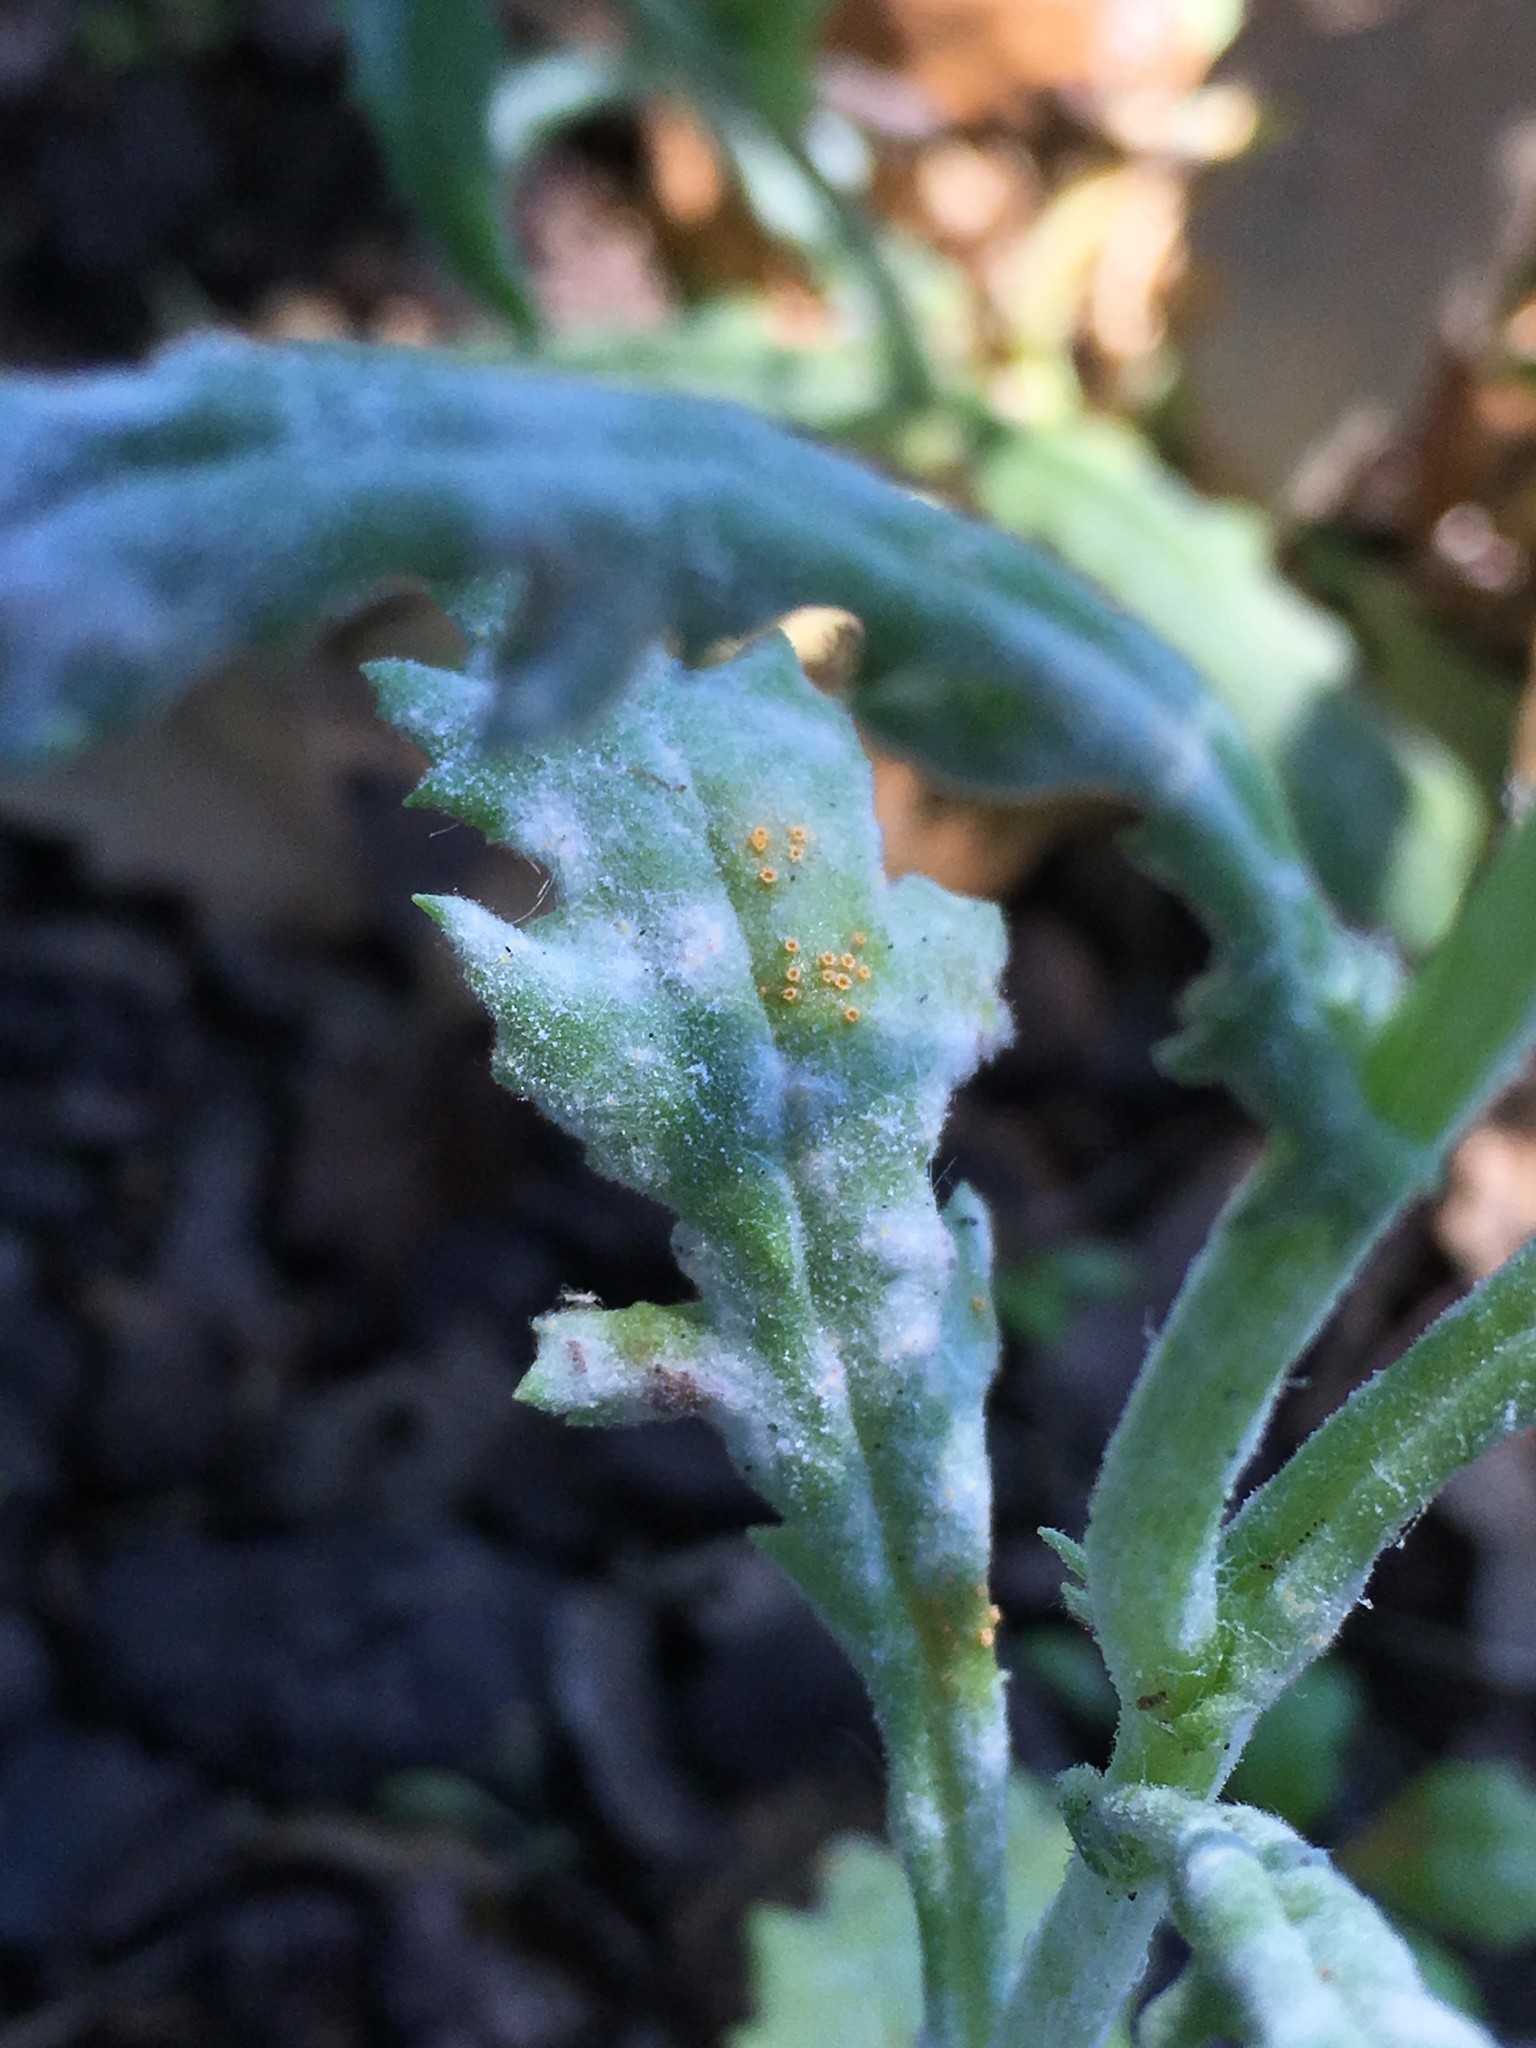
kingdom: Fungi
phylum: Basidiomycota
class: Pucciniomycetes
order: Pucciniales
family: Pucciniaceae
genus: Puccinia
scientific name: Puccinia lagenophorae
